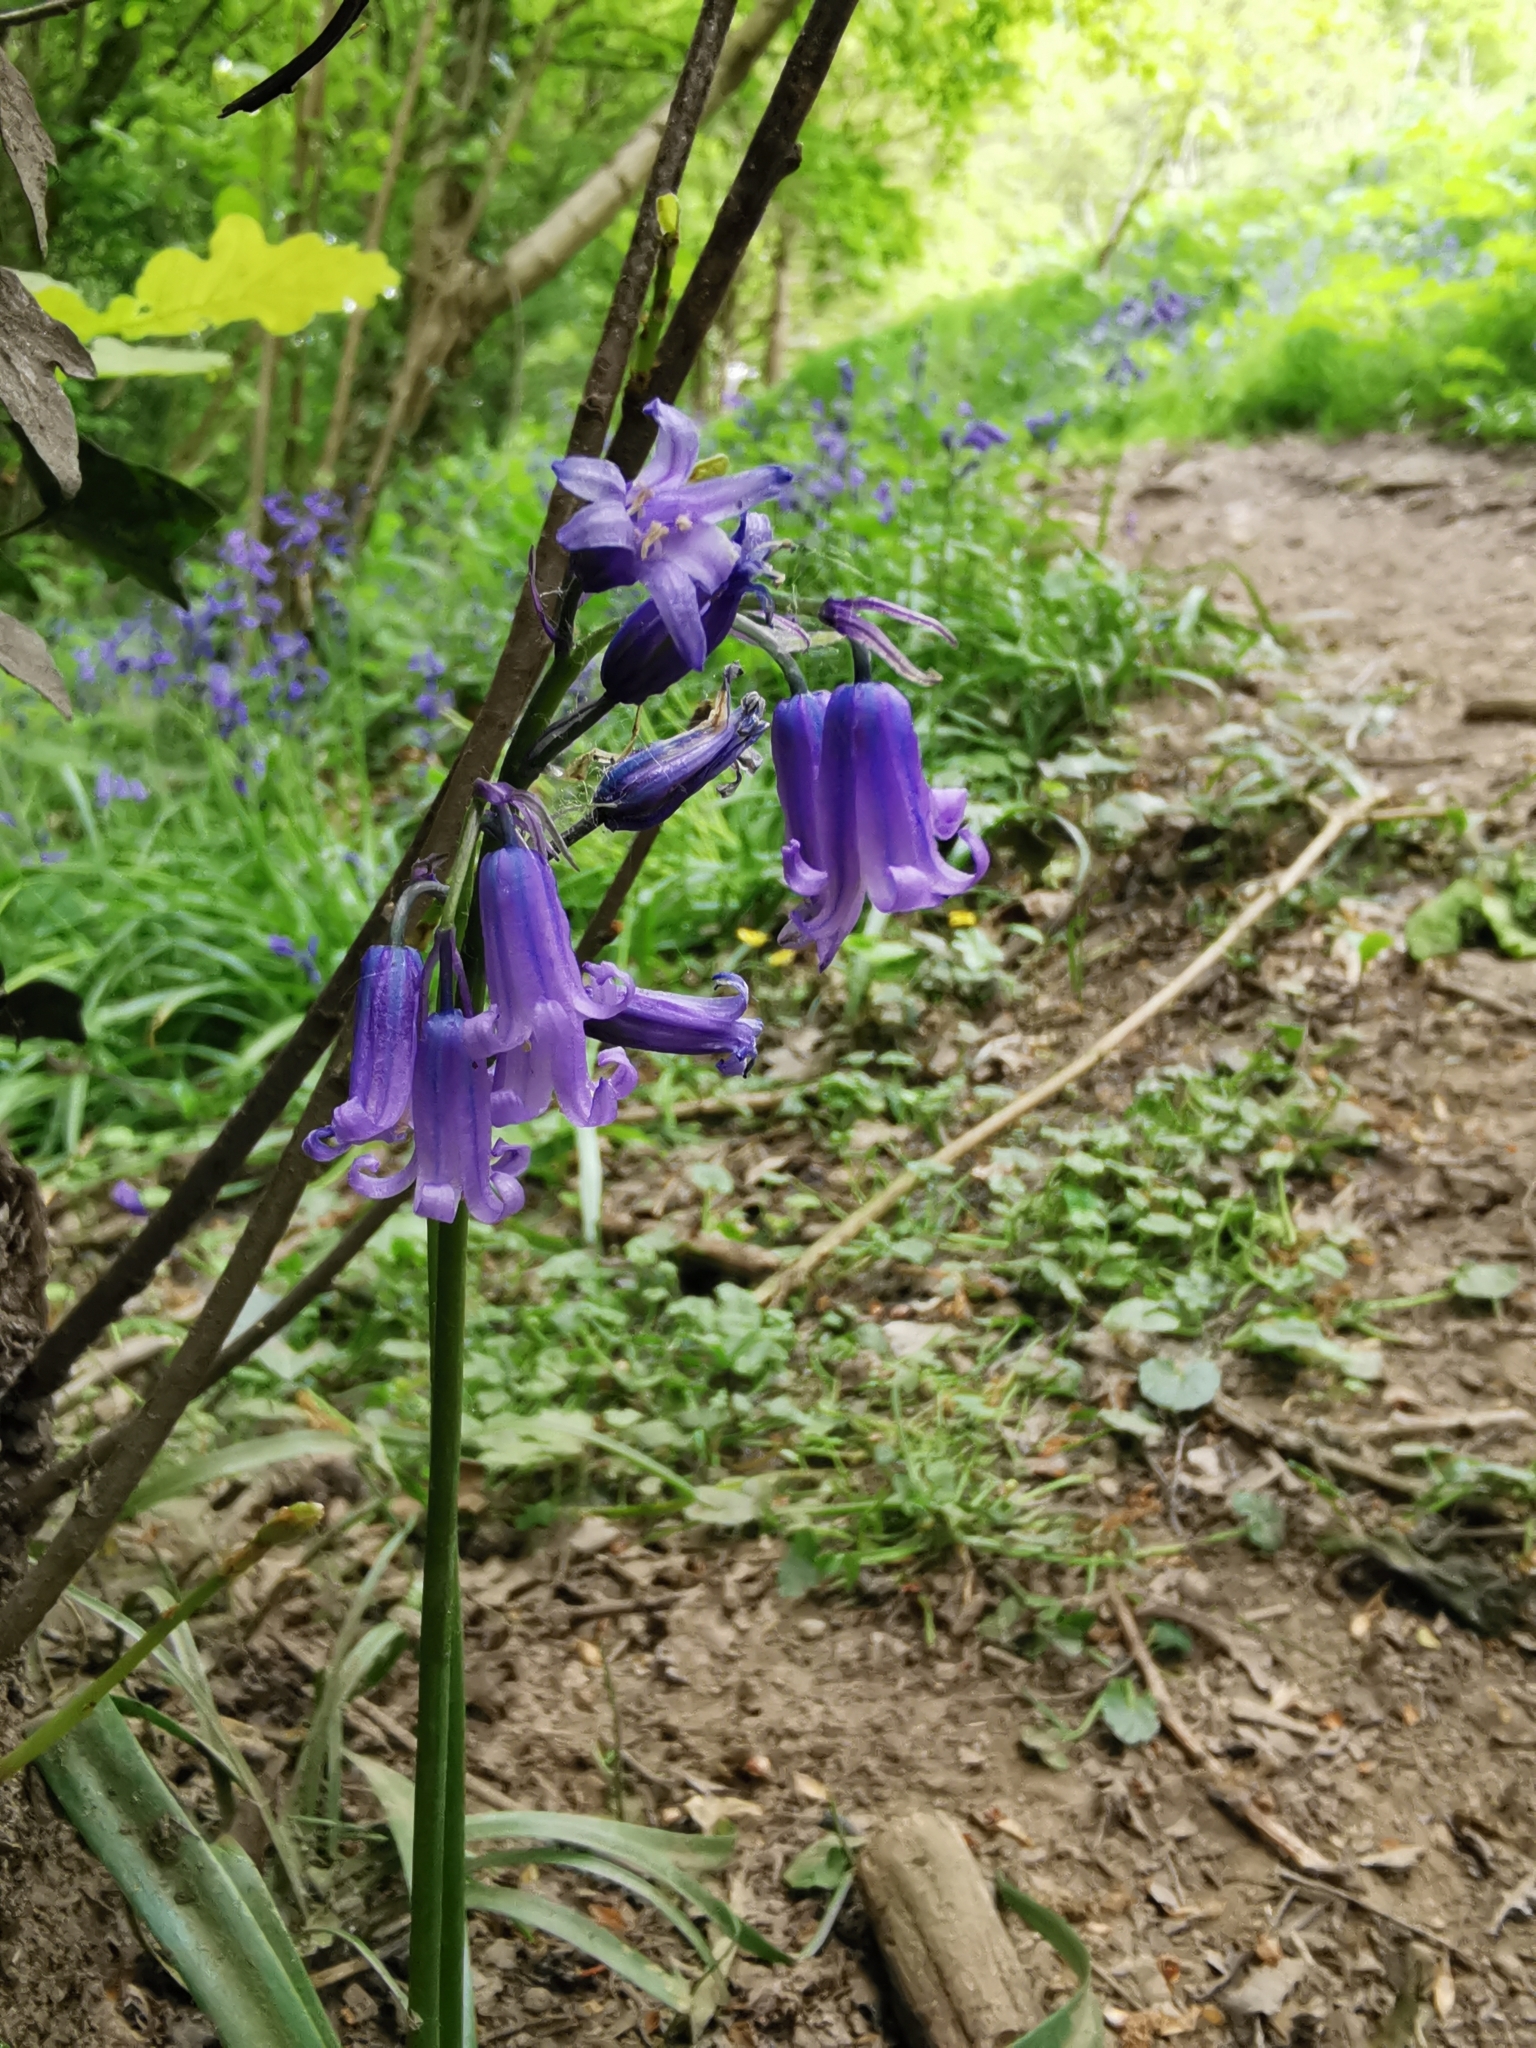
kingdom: Plantae
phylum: Tracheophyta
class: Liliopsida
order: Asparagales
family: Asparagaceae
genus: Hyacinthoides
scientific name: Hyacinthoides non-scripta
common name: Bluebell
